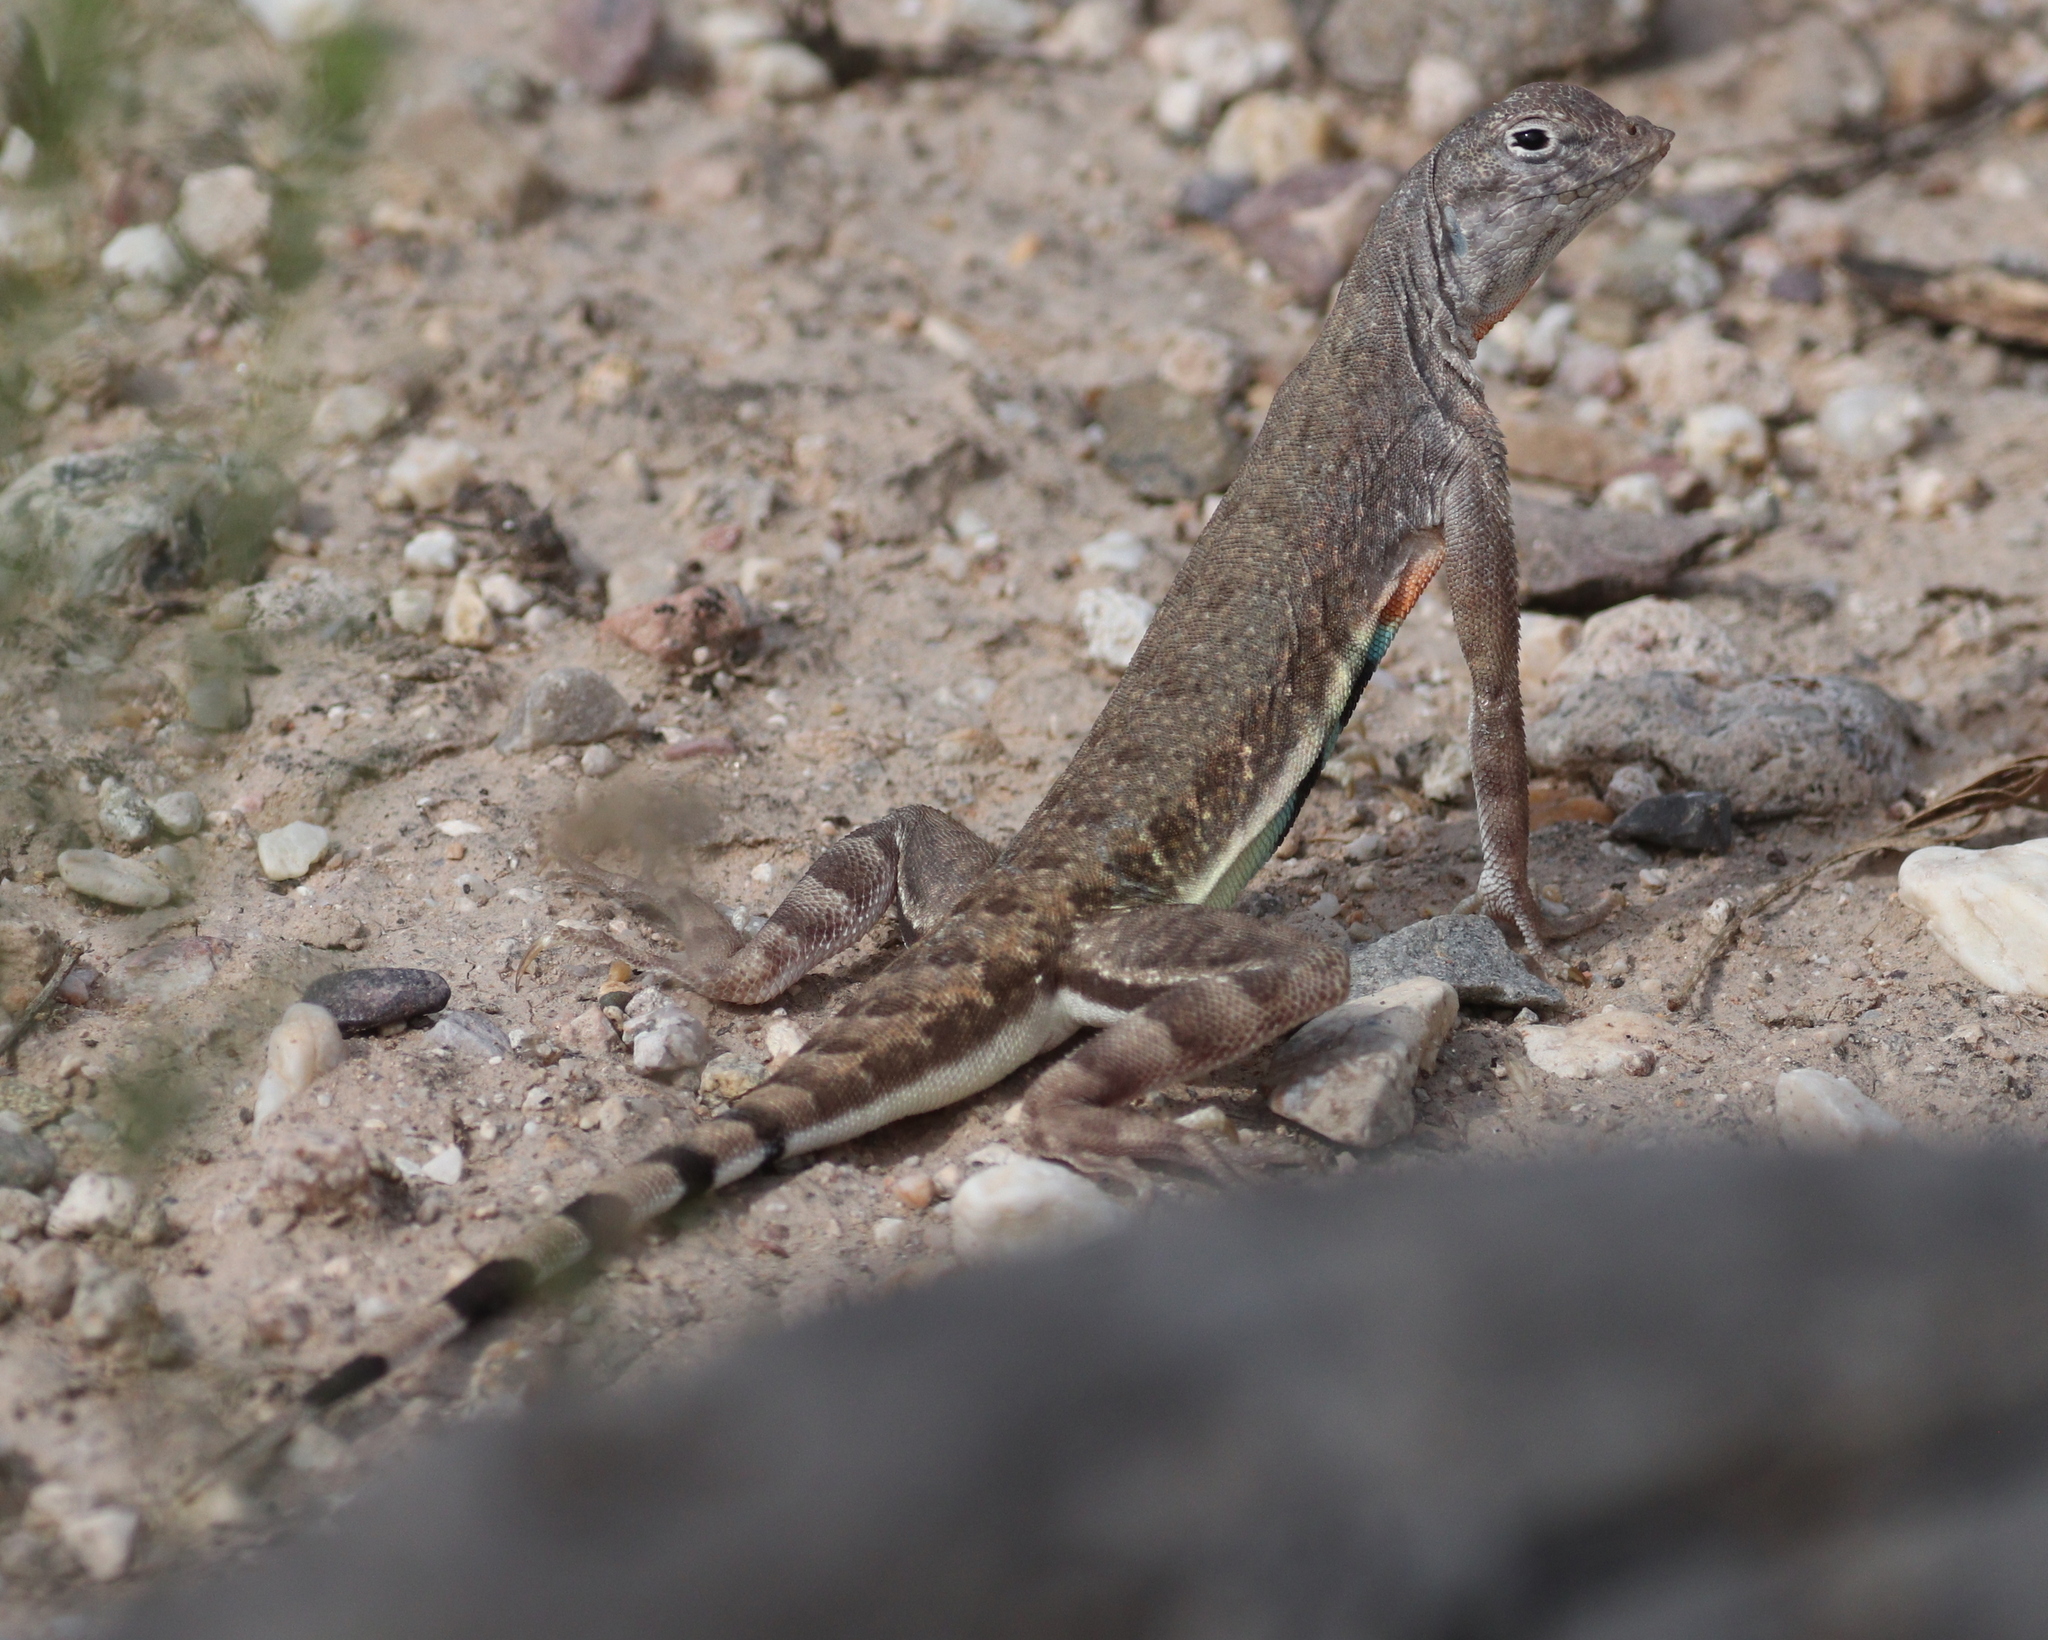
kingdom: Animalia
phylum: Chordata
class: Squamata
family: Phrynosomatidae
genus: Callisaurus
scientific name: Callisaurus draconoides
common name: Zebra-tailed lizard
